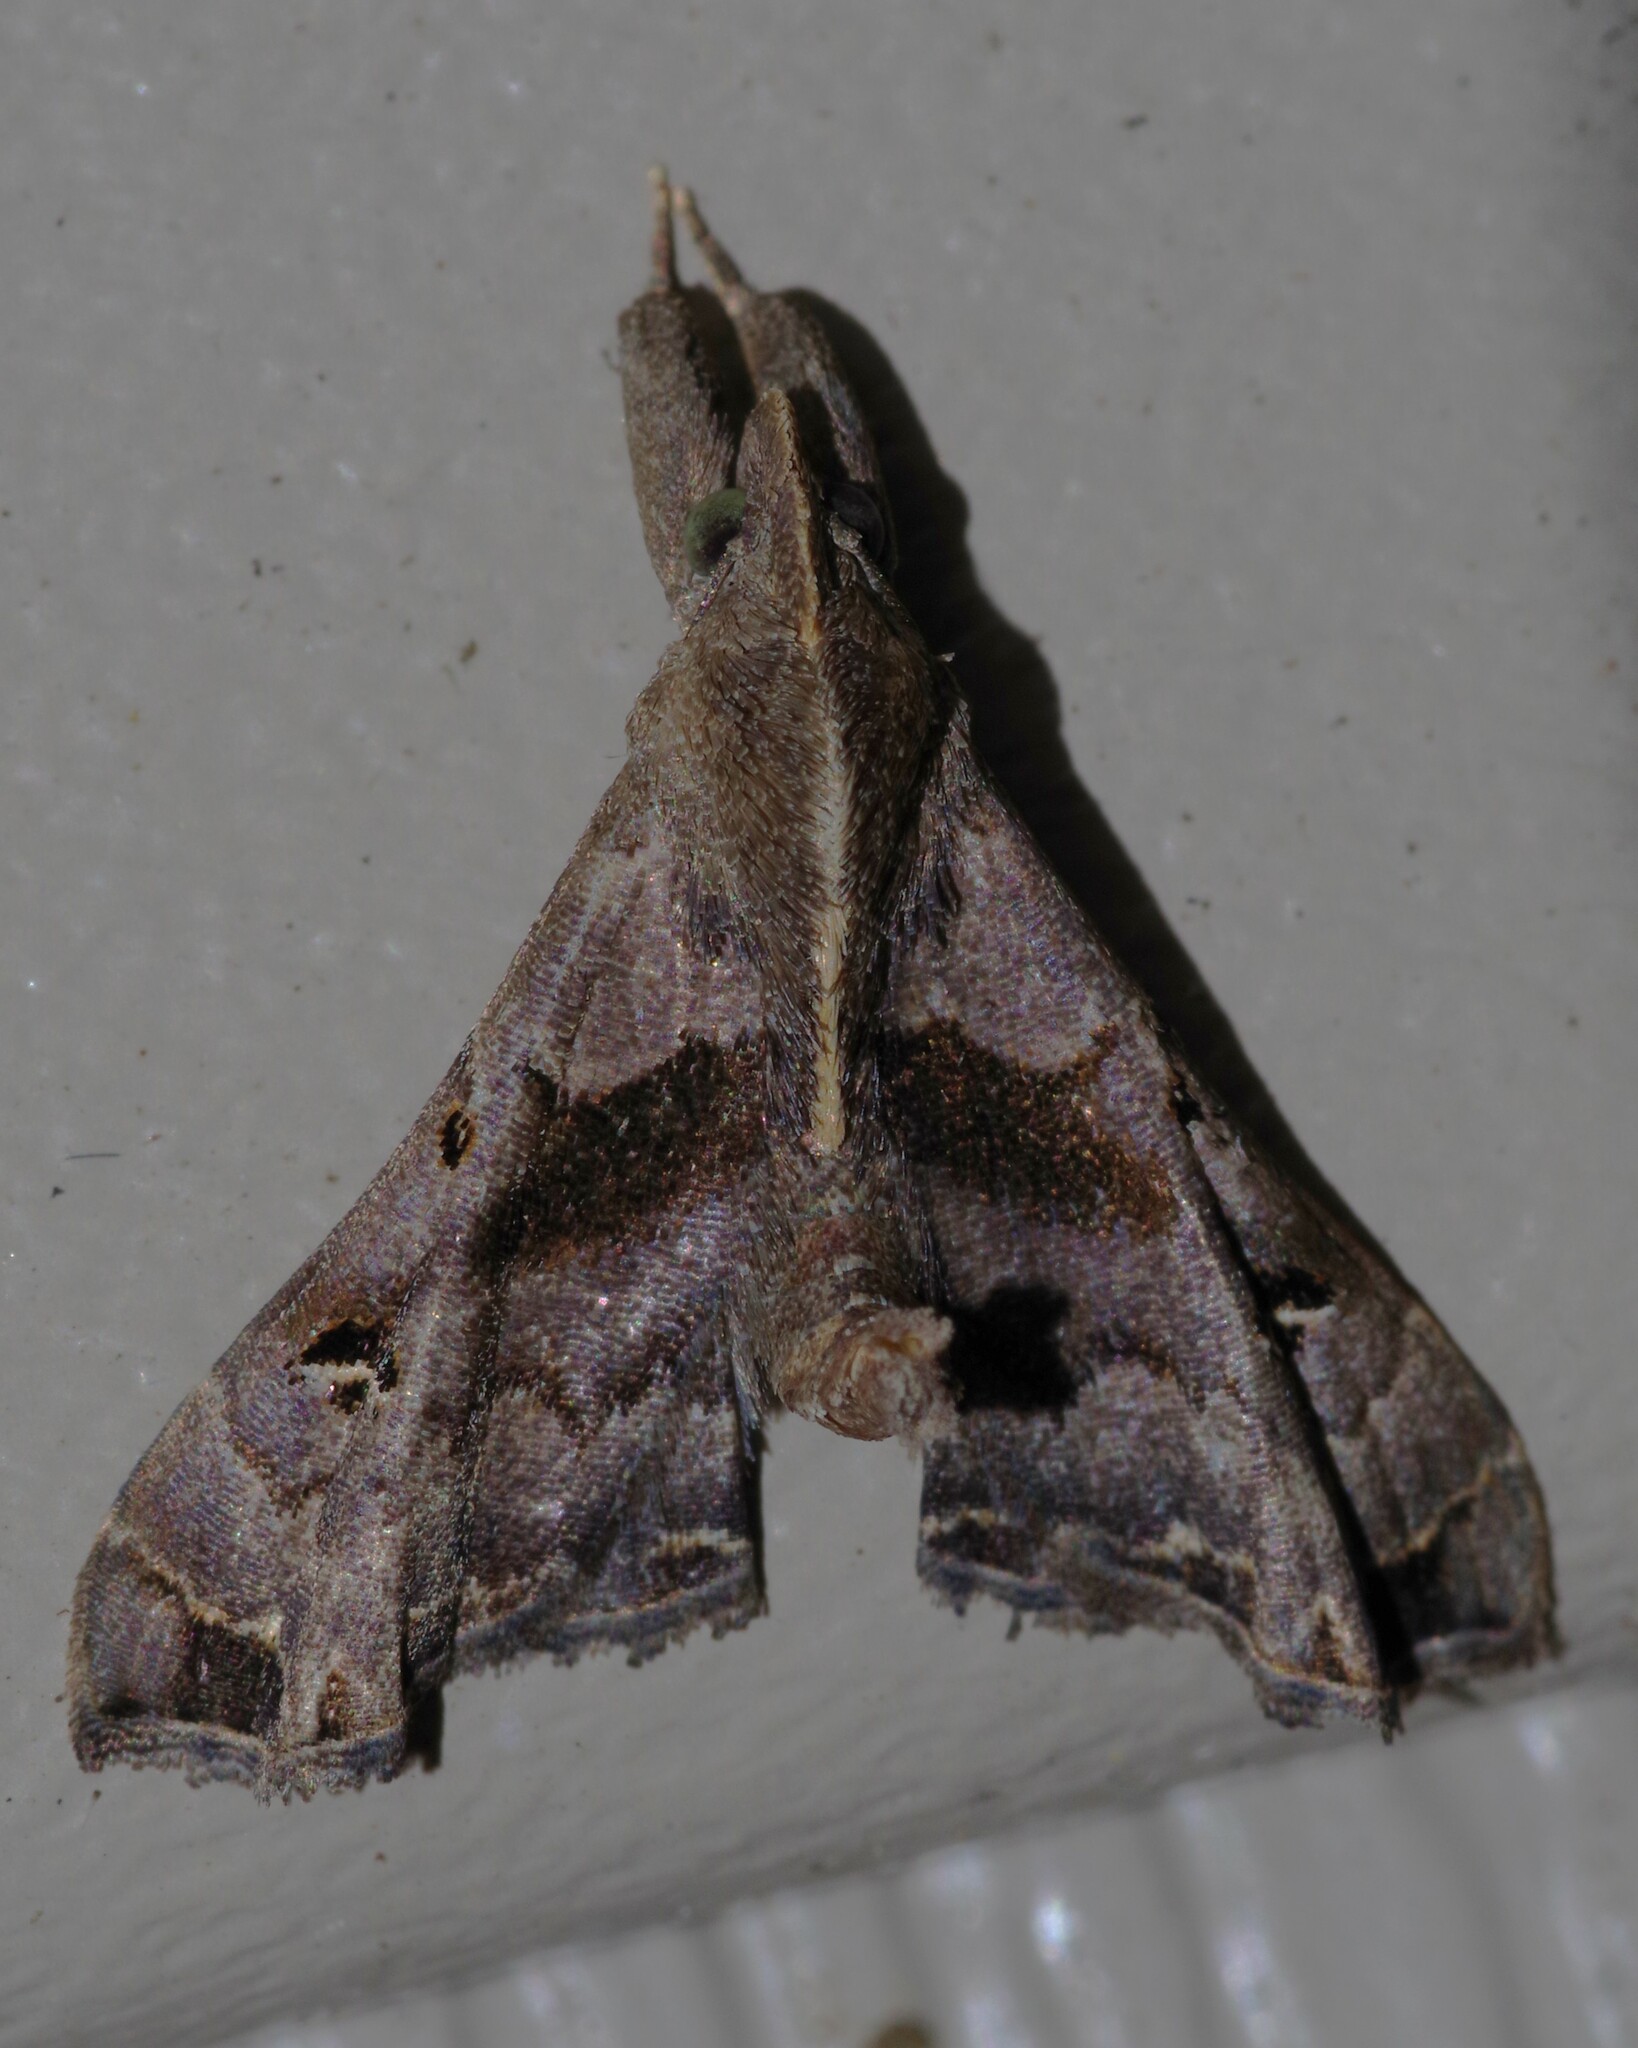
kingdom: Animalia
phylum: Arthropoda
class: Insecta
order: Lepidoptera
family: Erebidae
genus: Palthis
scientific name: Palthis asopialis
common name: Faint-spotted palthis moth
